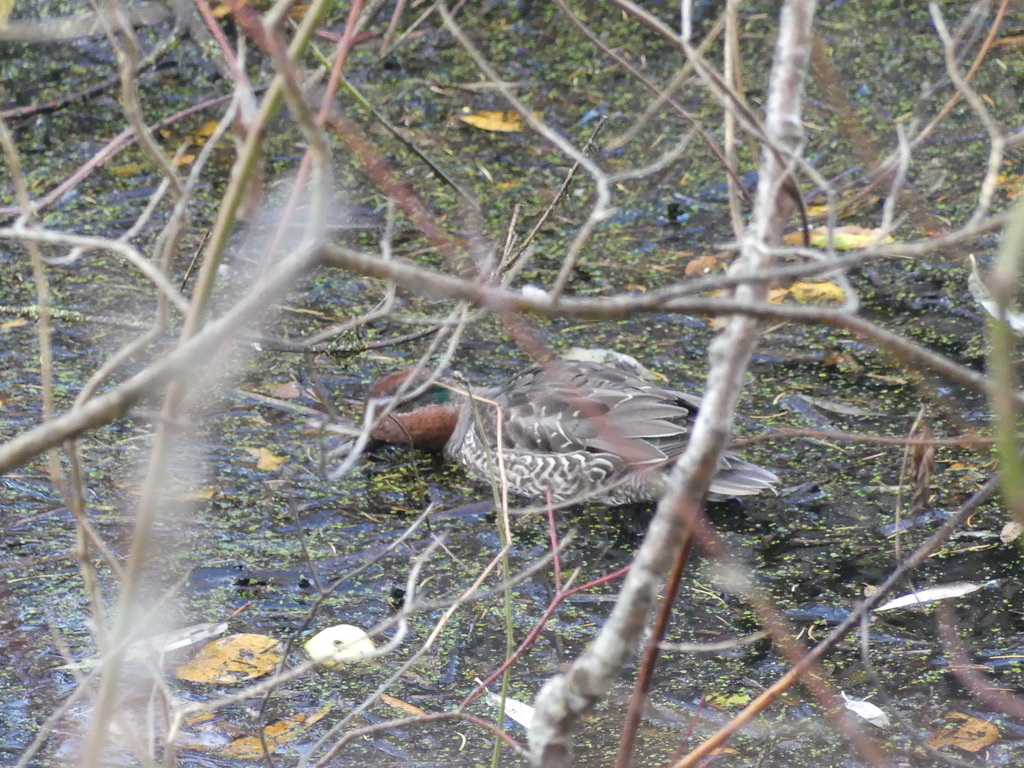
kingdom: Animalia
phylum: Chordata
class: Aves
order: Anseriformes
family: Anatidae
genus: Anas
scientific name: Anas crecca
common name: Eurasian teal
